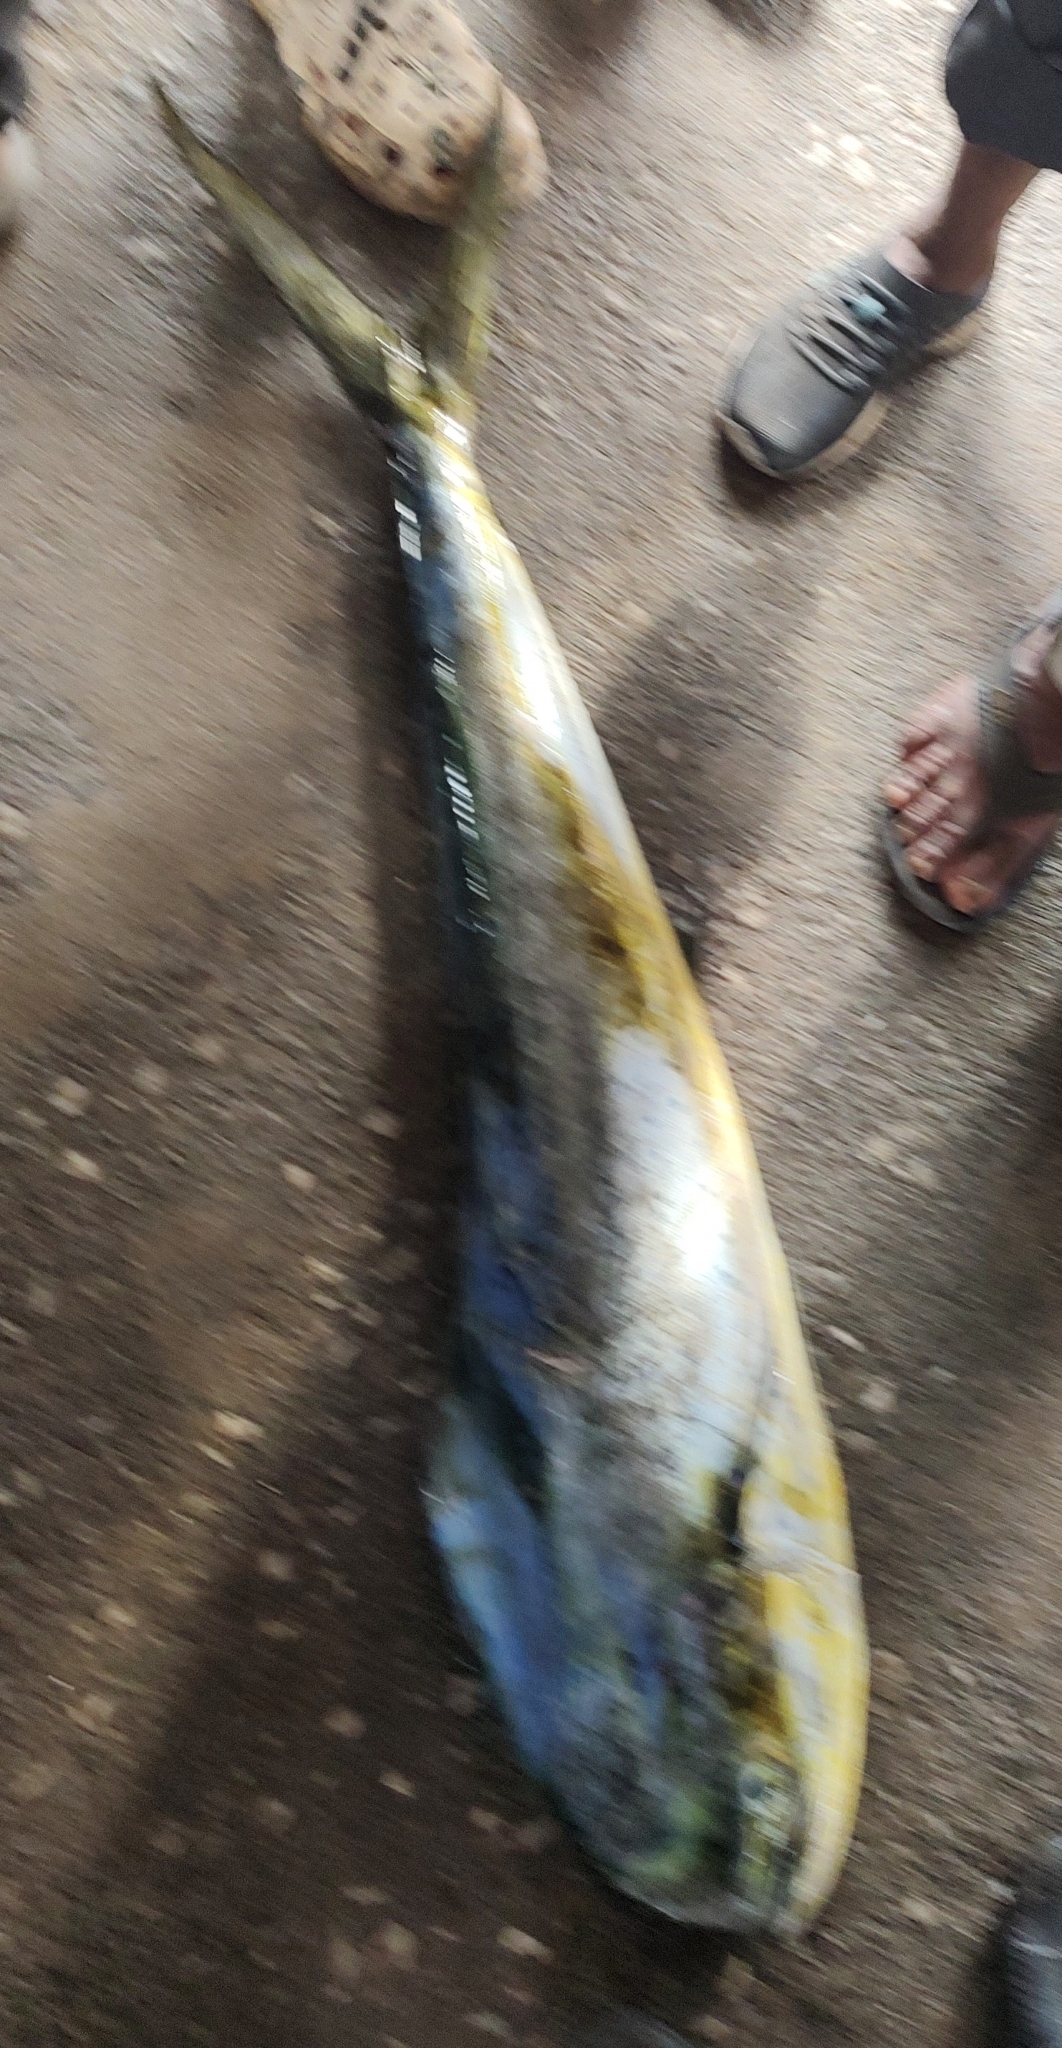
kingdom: Animalia
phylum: Chordata
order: Perciformes
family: Coryphaenidae
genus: Coryphaena
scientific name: Coryphaena hippurus
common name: Dolphin
